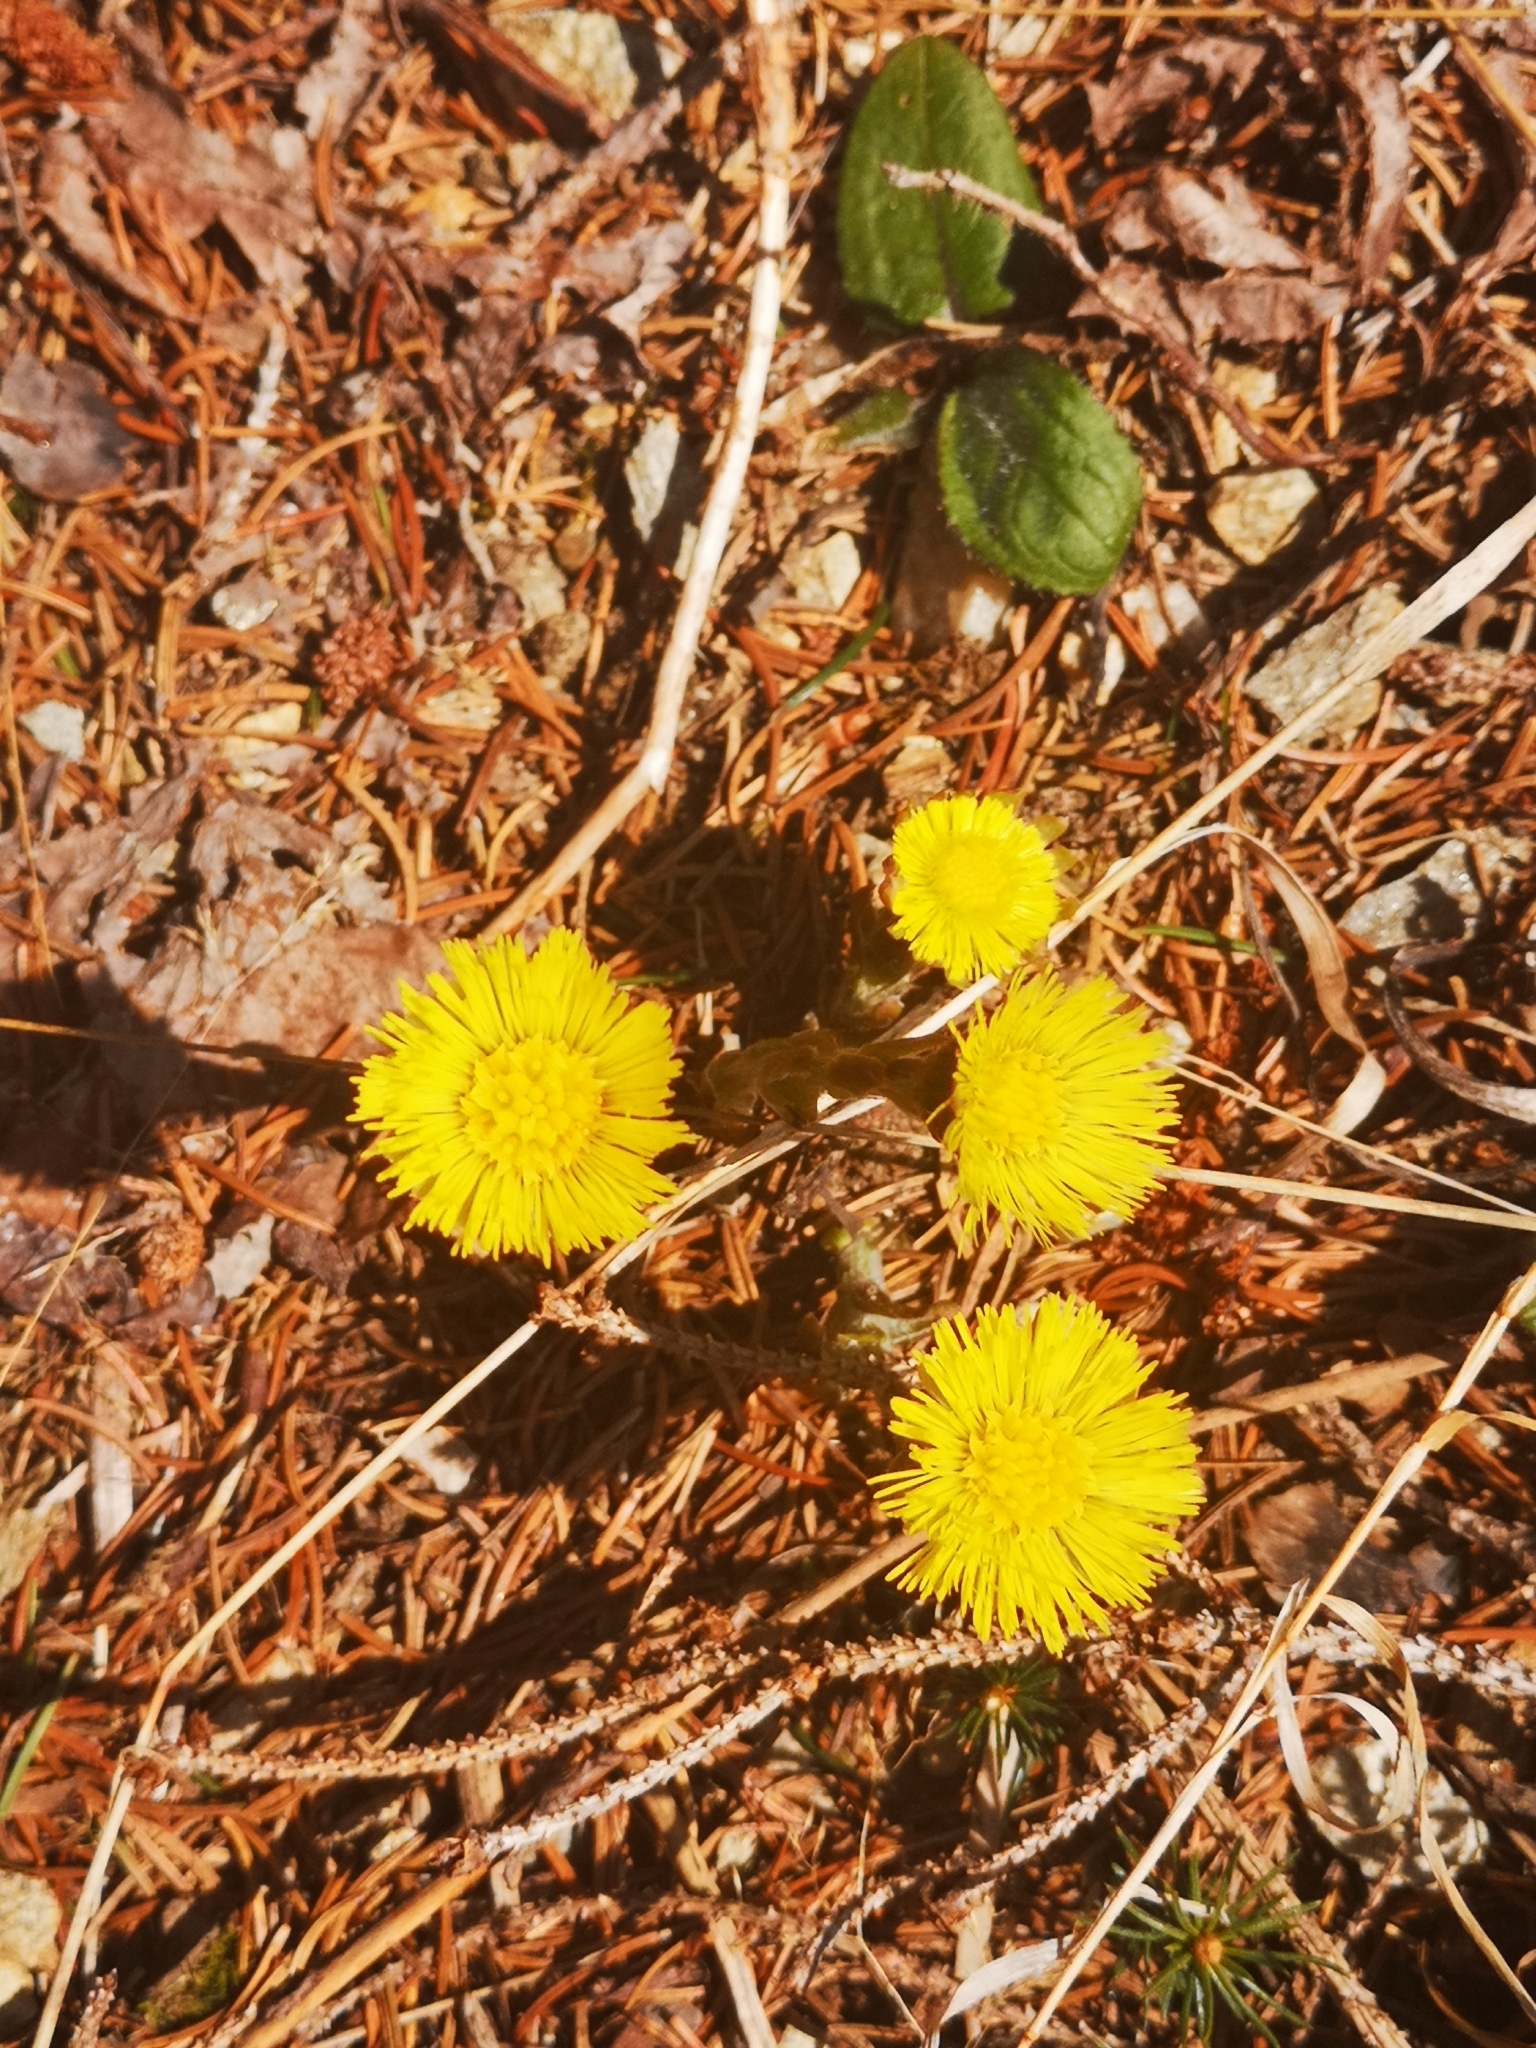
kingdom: Plantae
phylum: Tracheophyta
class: Magnoliopsida
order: Asterales
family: Asteraceae
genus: Tussilago
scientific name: Tussilago farfara
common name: Coltsfoot
